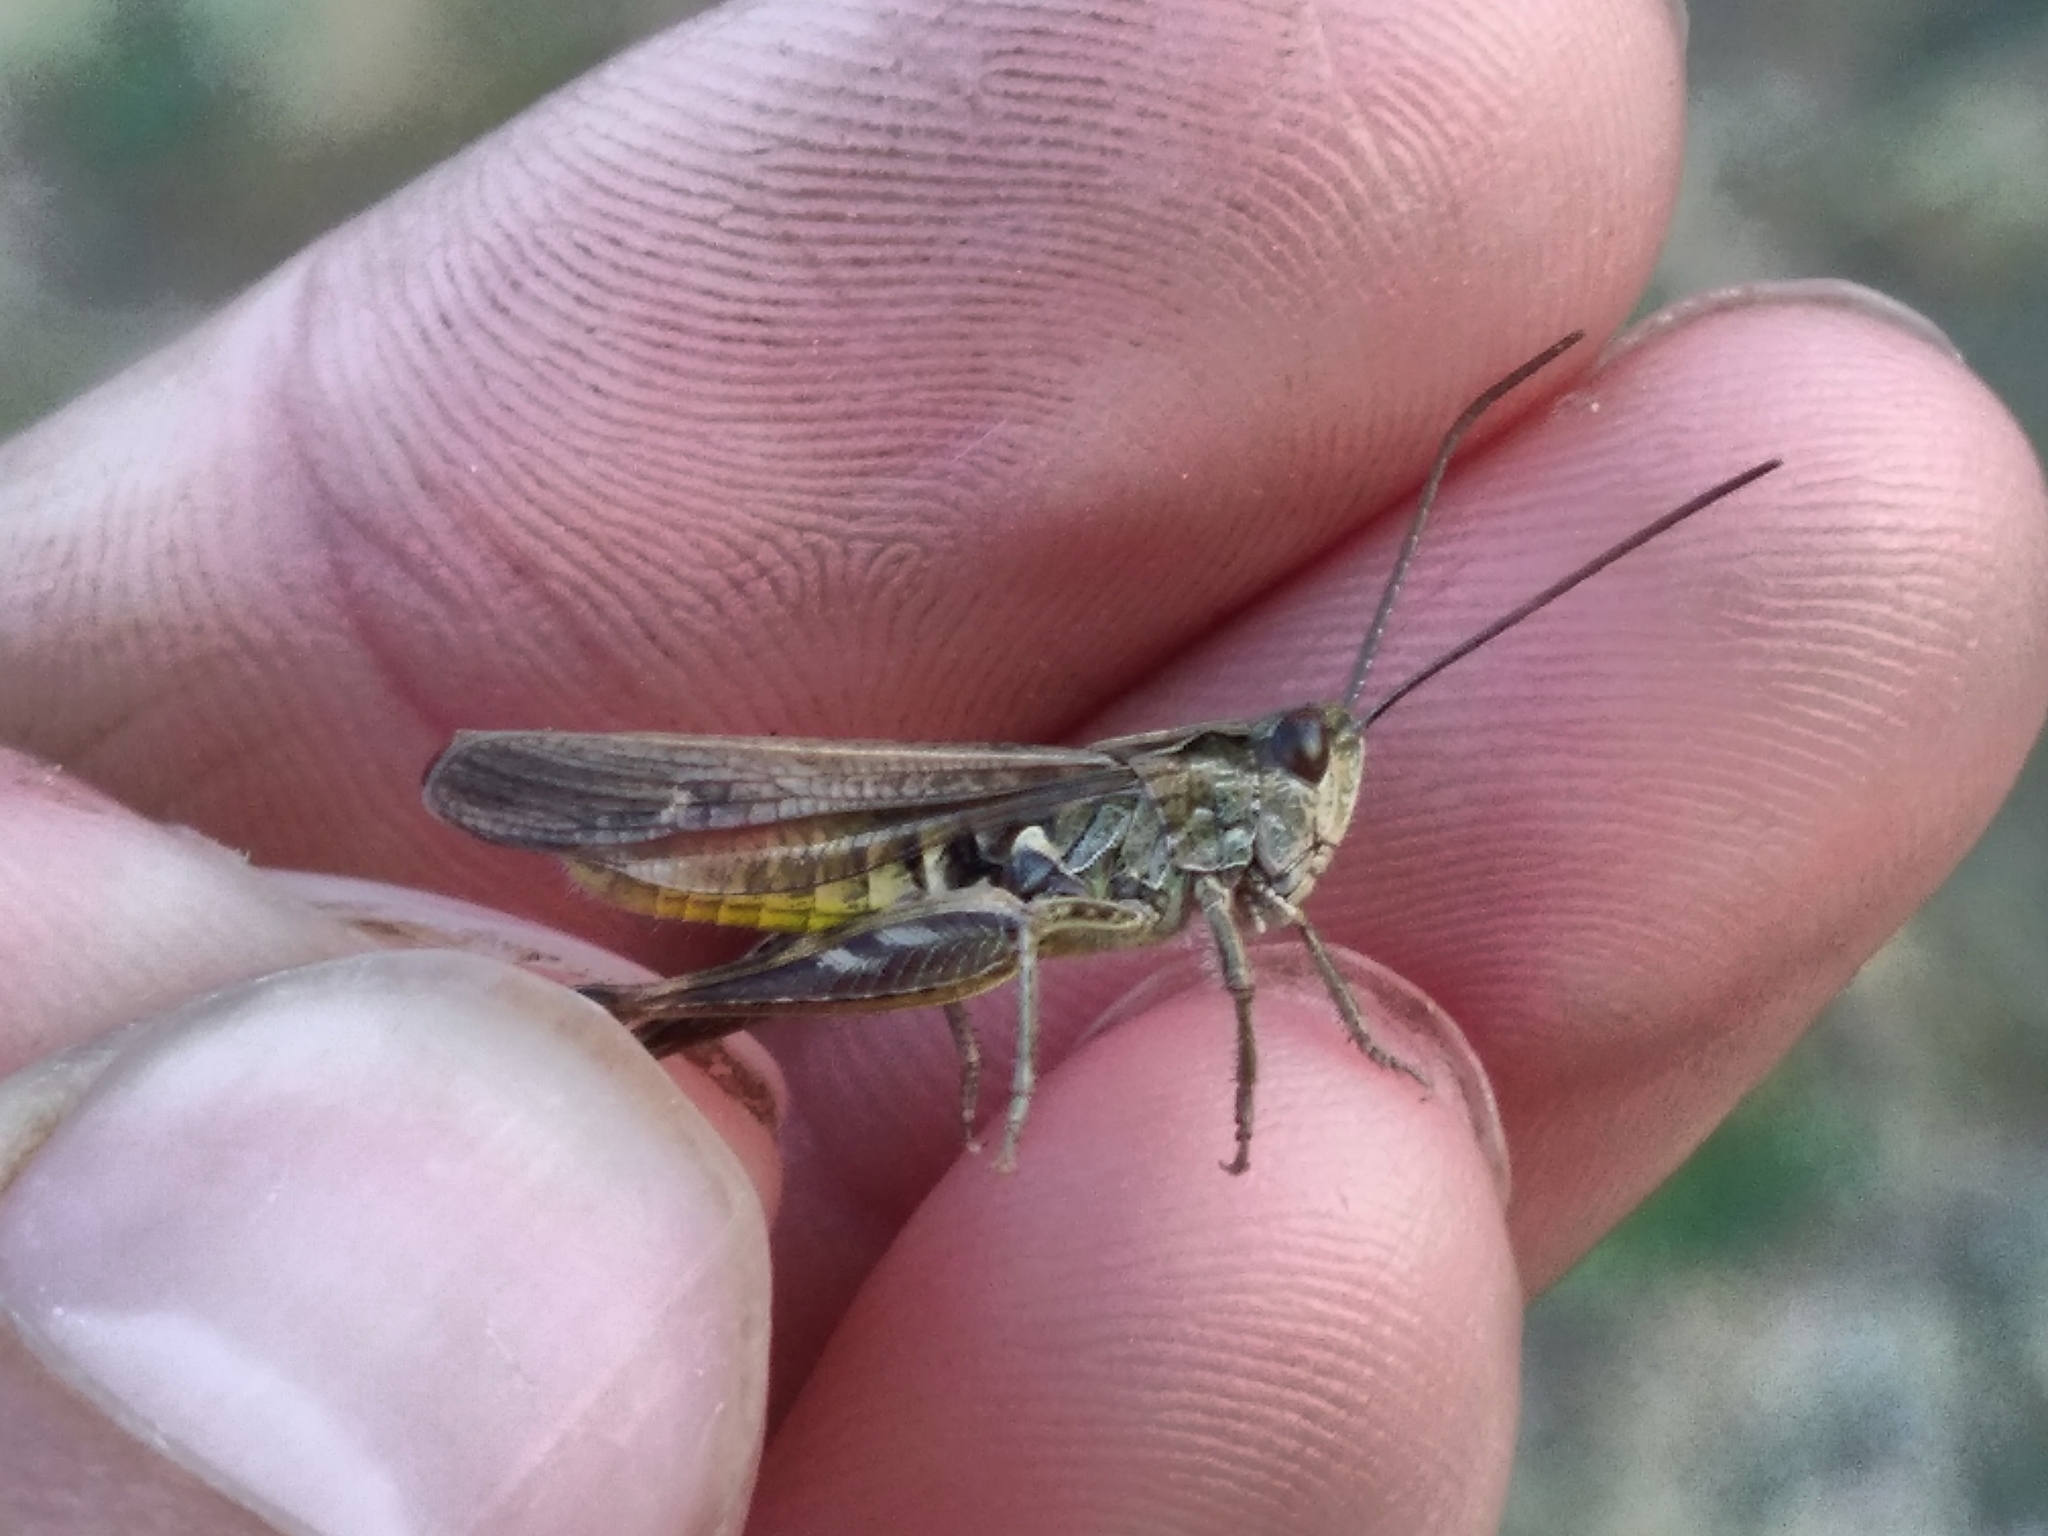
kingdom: Animalia
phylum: Arthropoda
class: Insecta
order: Orthoptera
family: Acrididae
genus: Chorthippus
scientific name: Chorthippus biguttulus
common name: Bow-winged grasshopper
